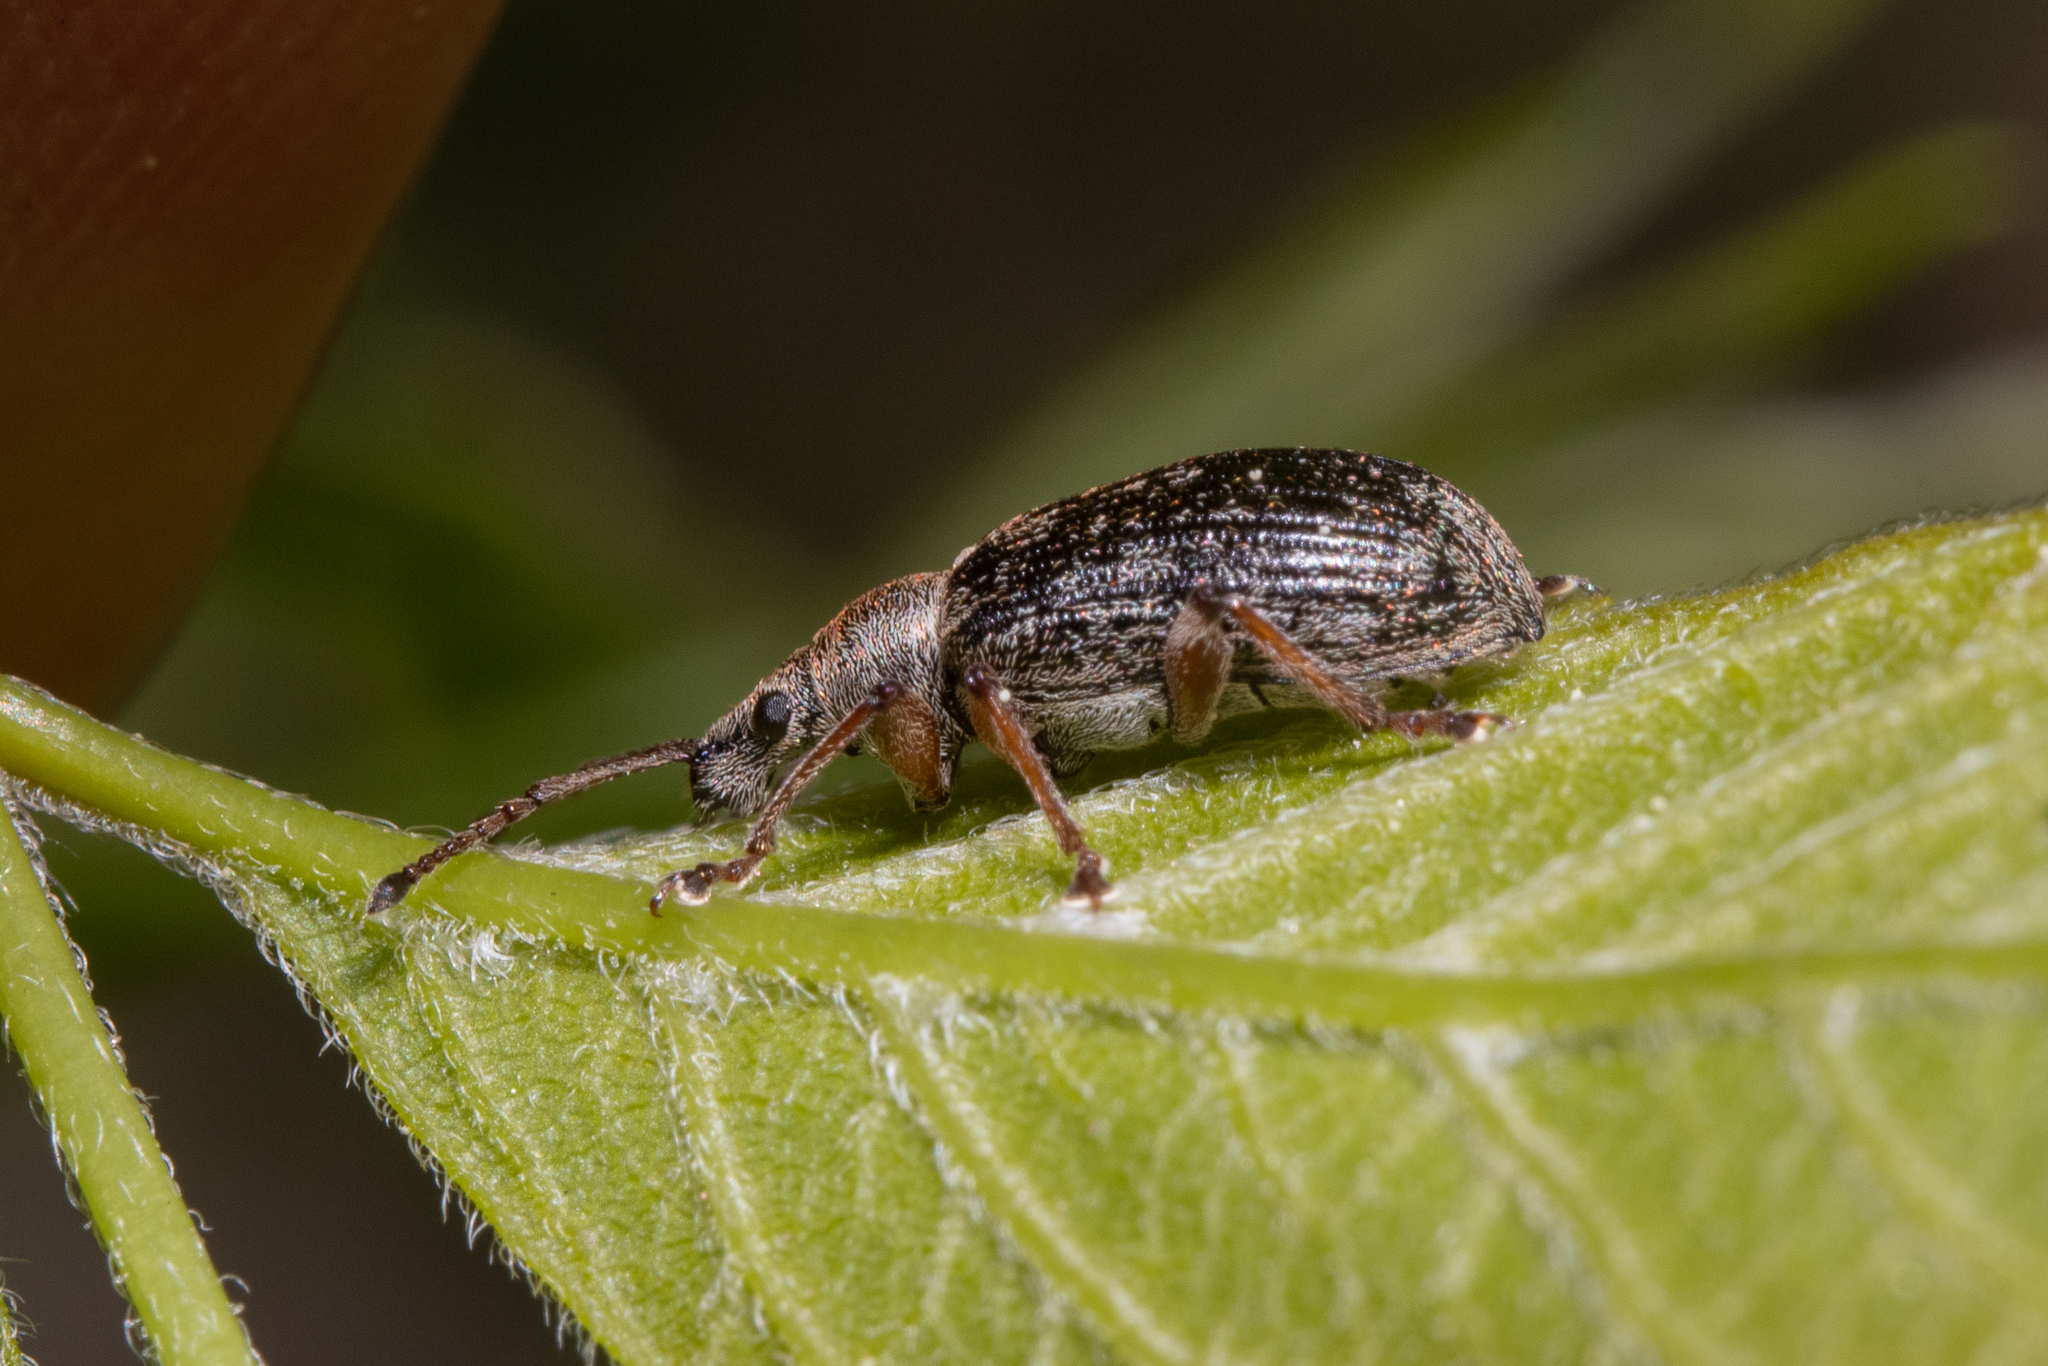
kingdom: Animalia
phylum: Arthropoda
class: Insecta
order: Coleoptera
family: Curculionidae
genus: Phyllobius
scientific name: Phyllobius pyri
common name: Common leaf weevil
